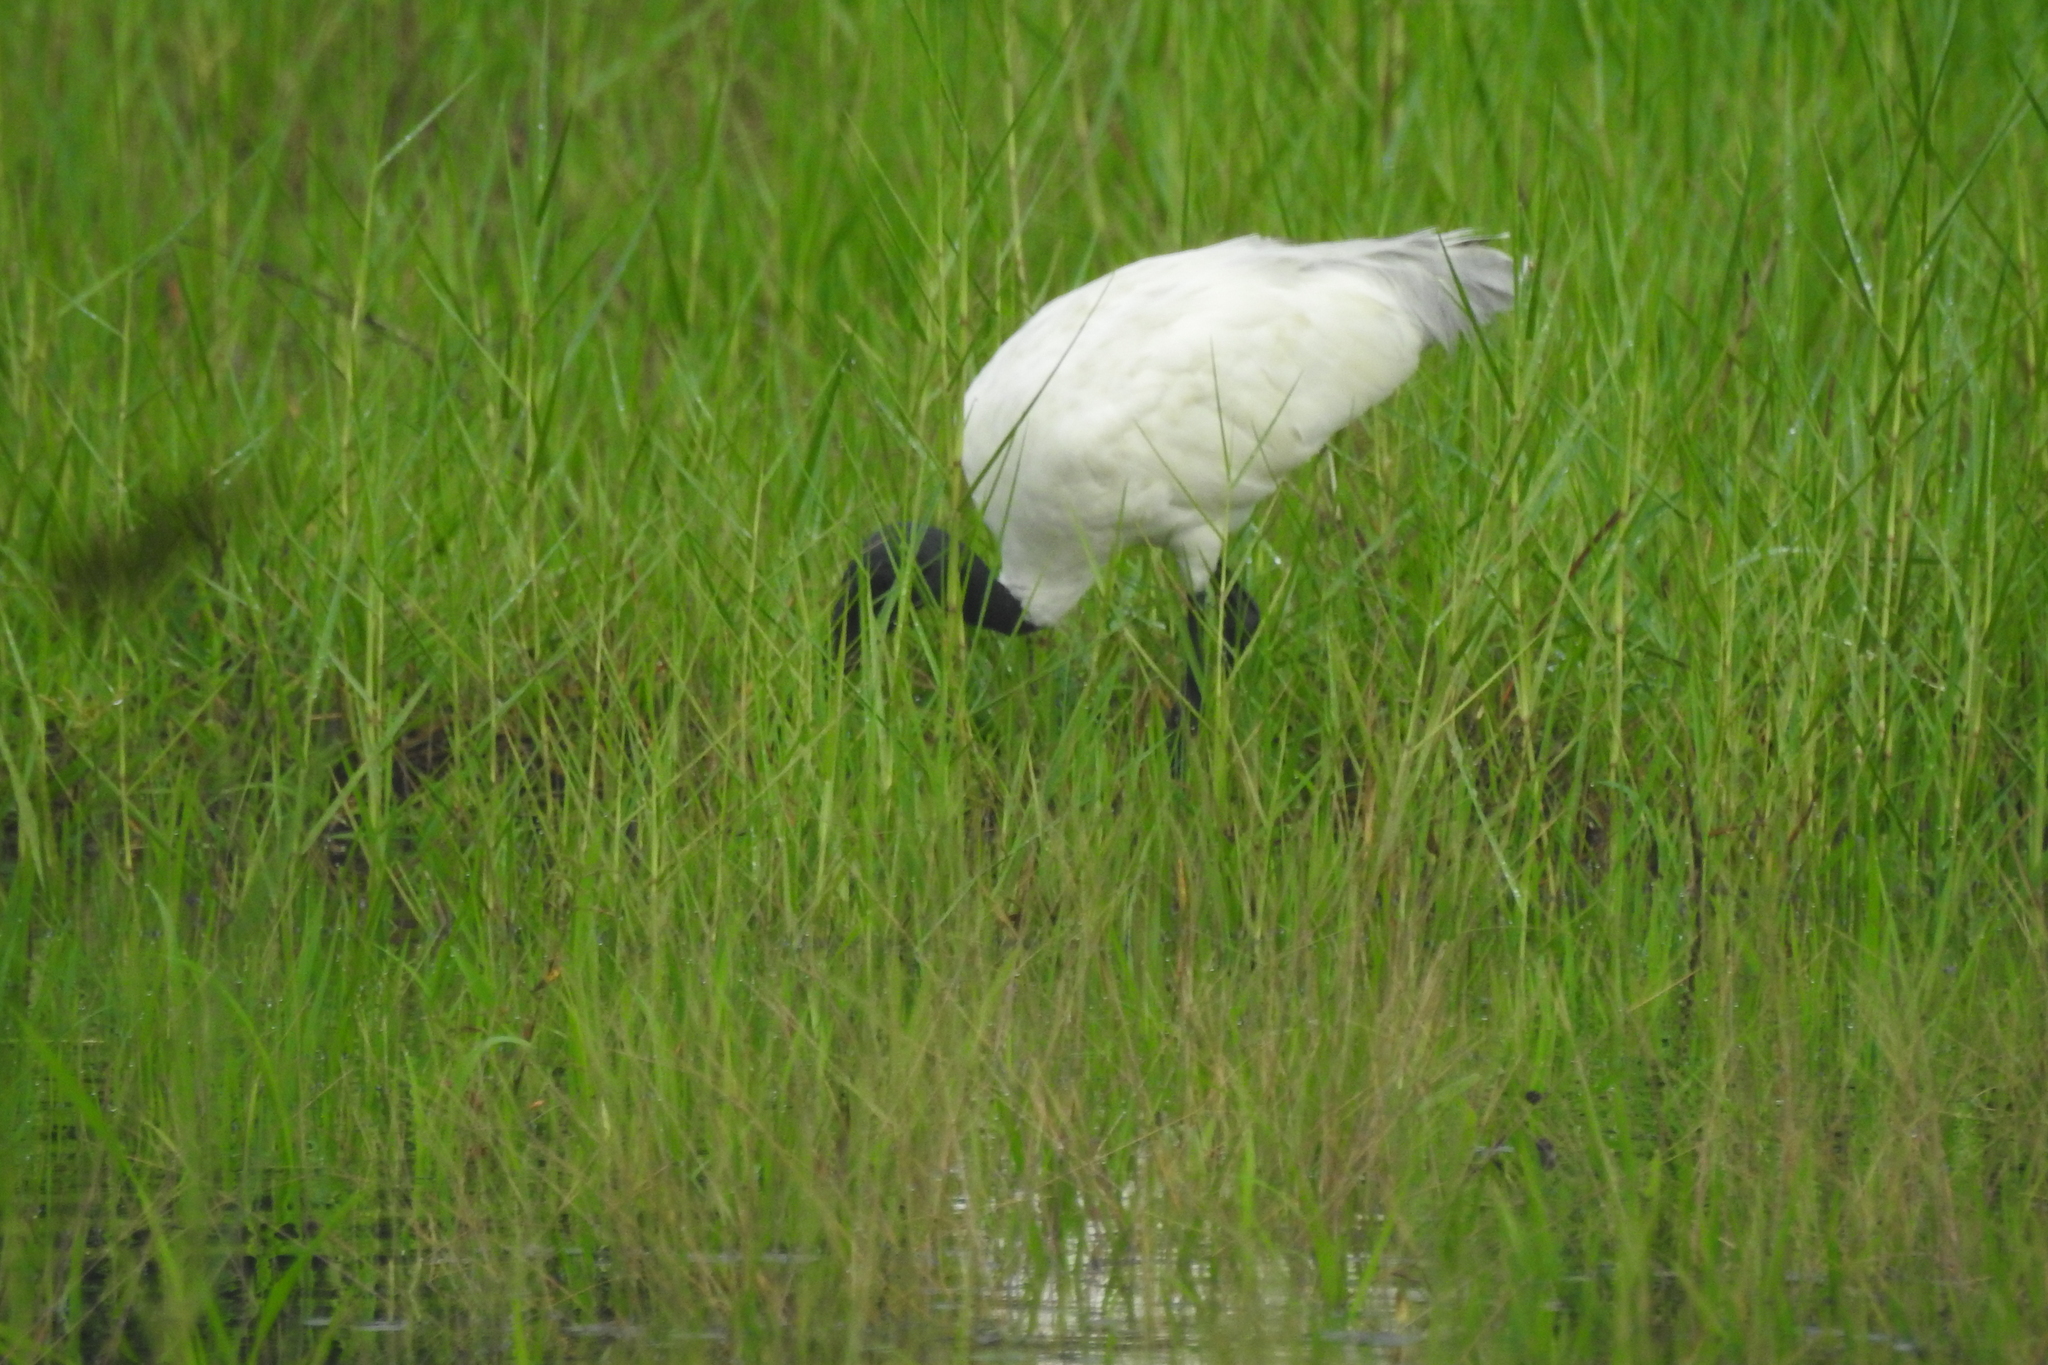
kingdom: Animalia
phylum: Chordata
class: Aves
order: Pelecaniformes
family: Threskiornithidae
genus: Threskiornis
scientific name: Threskiornis melanocephalus
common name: Black-headed ibis
